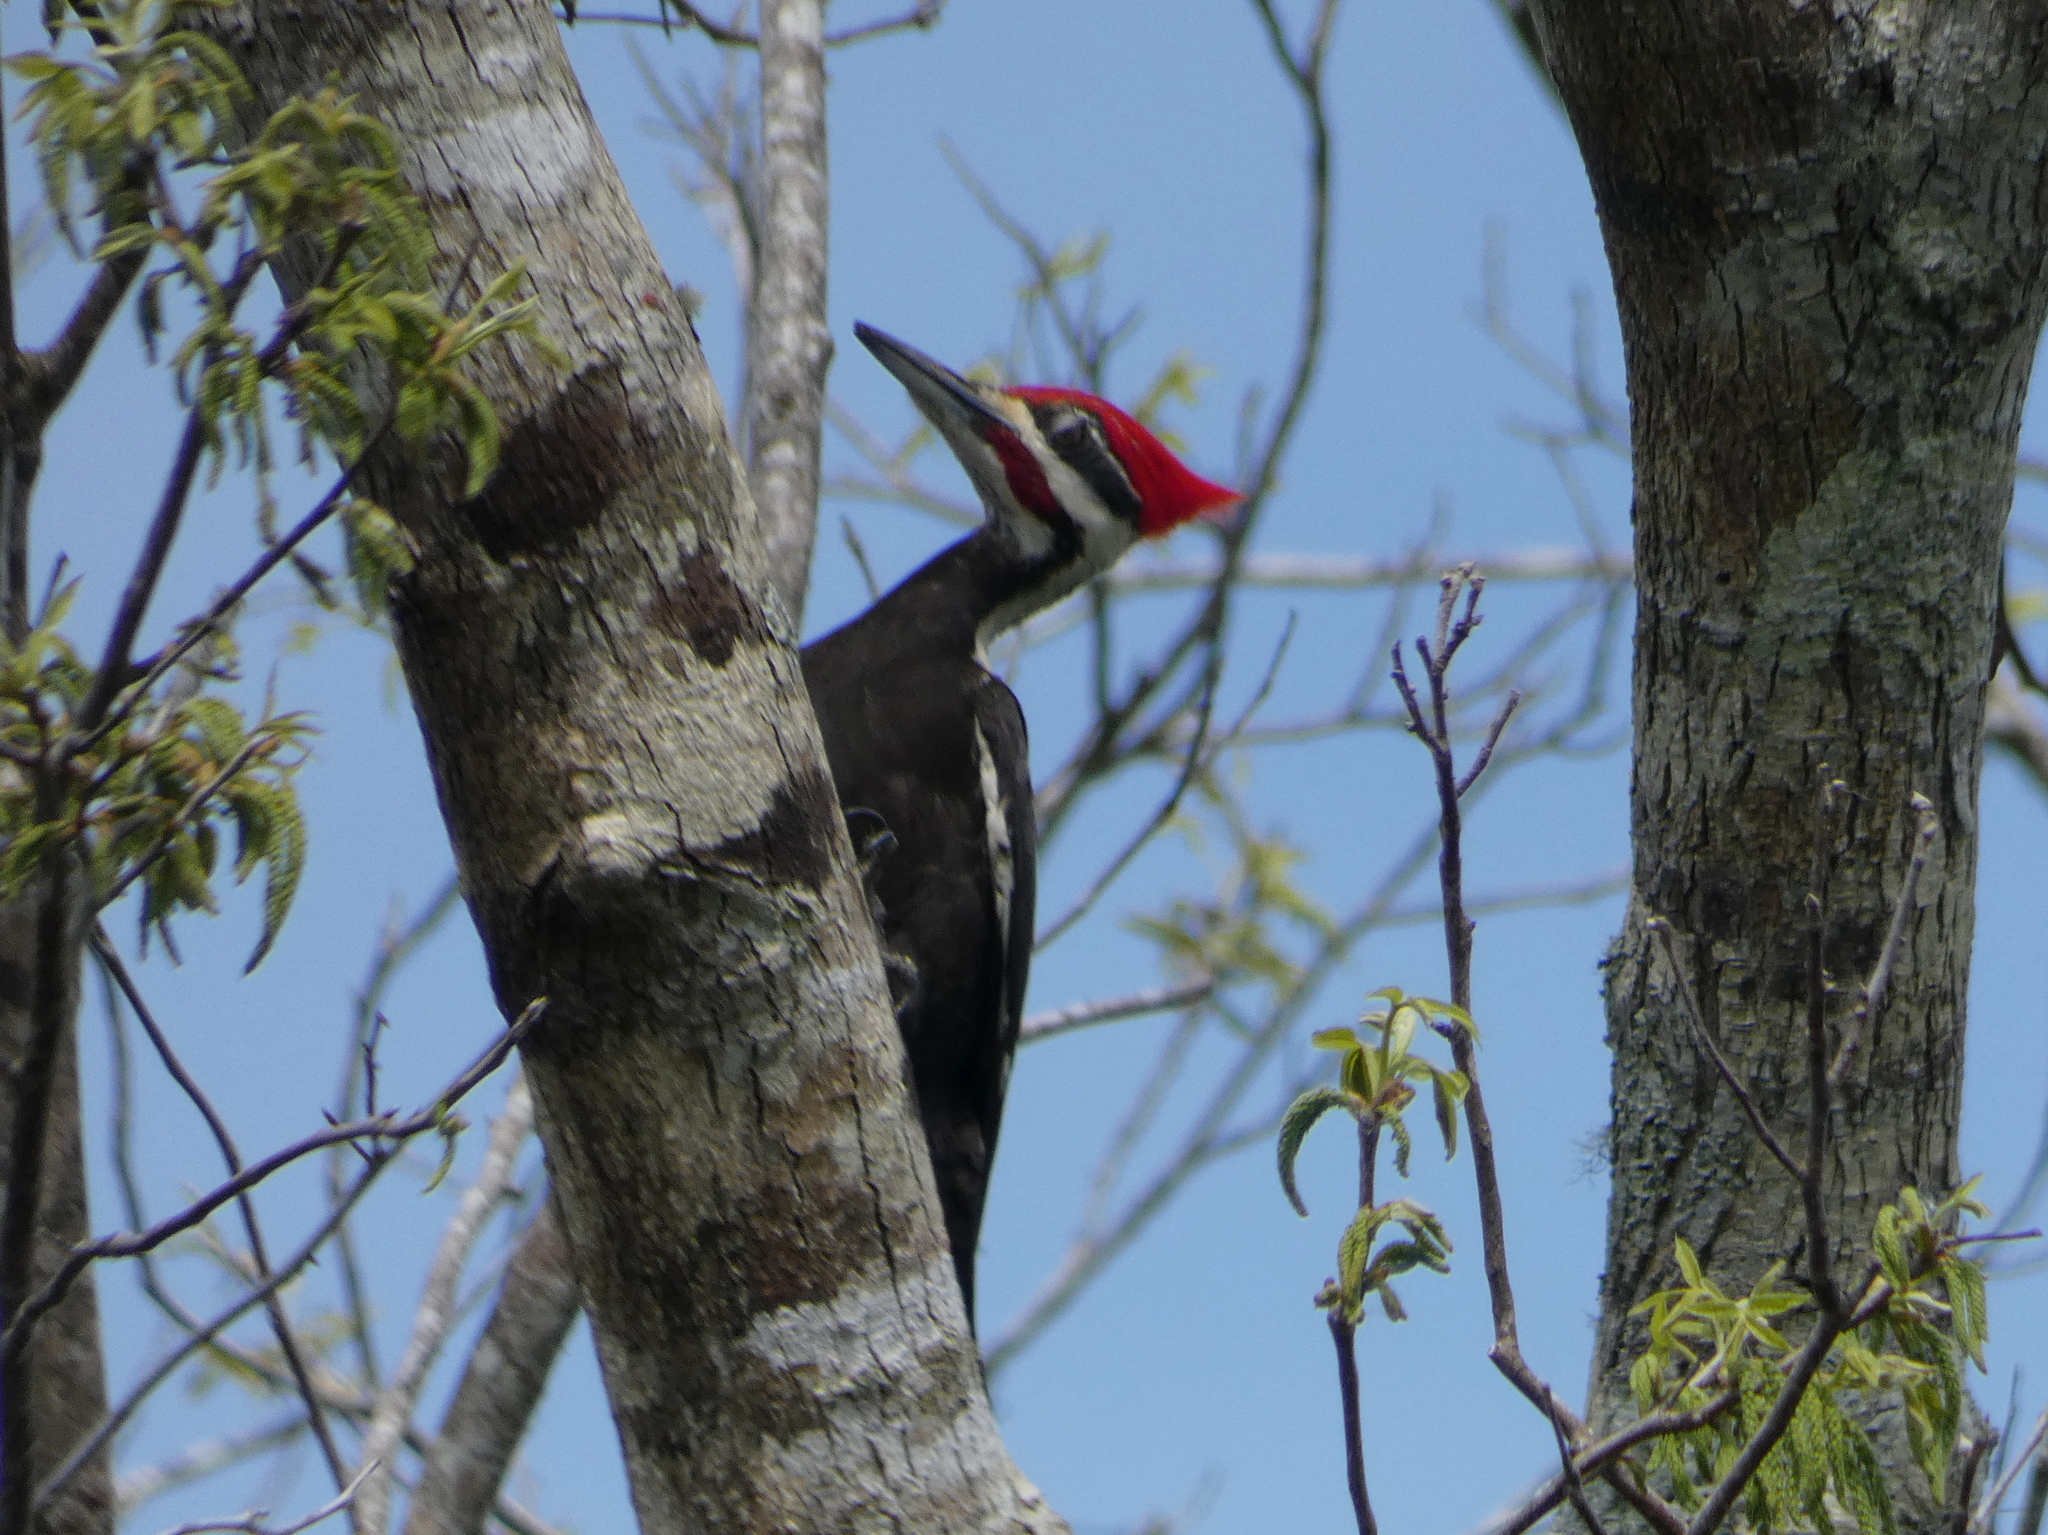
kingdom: Animalia
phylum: Chordata
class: Aves
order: Piciformes
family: Picidae
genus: Dryocopus
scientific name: Dryocopus pileatus
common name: Pileated woodpecker
